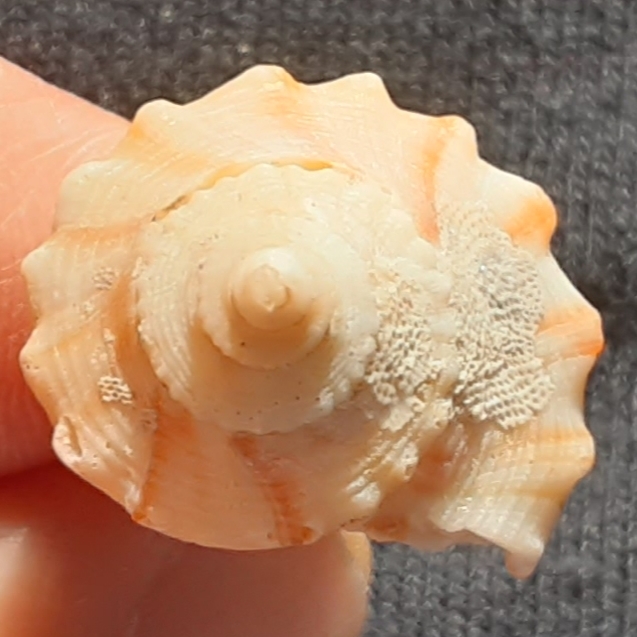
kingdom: Animalia
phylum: Mollusca
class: Gastropoda
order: Neogastropoda
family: Busyconidae
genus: Busycon
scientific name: Busycon carica
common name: Knobbed whelk
